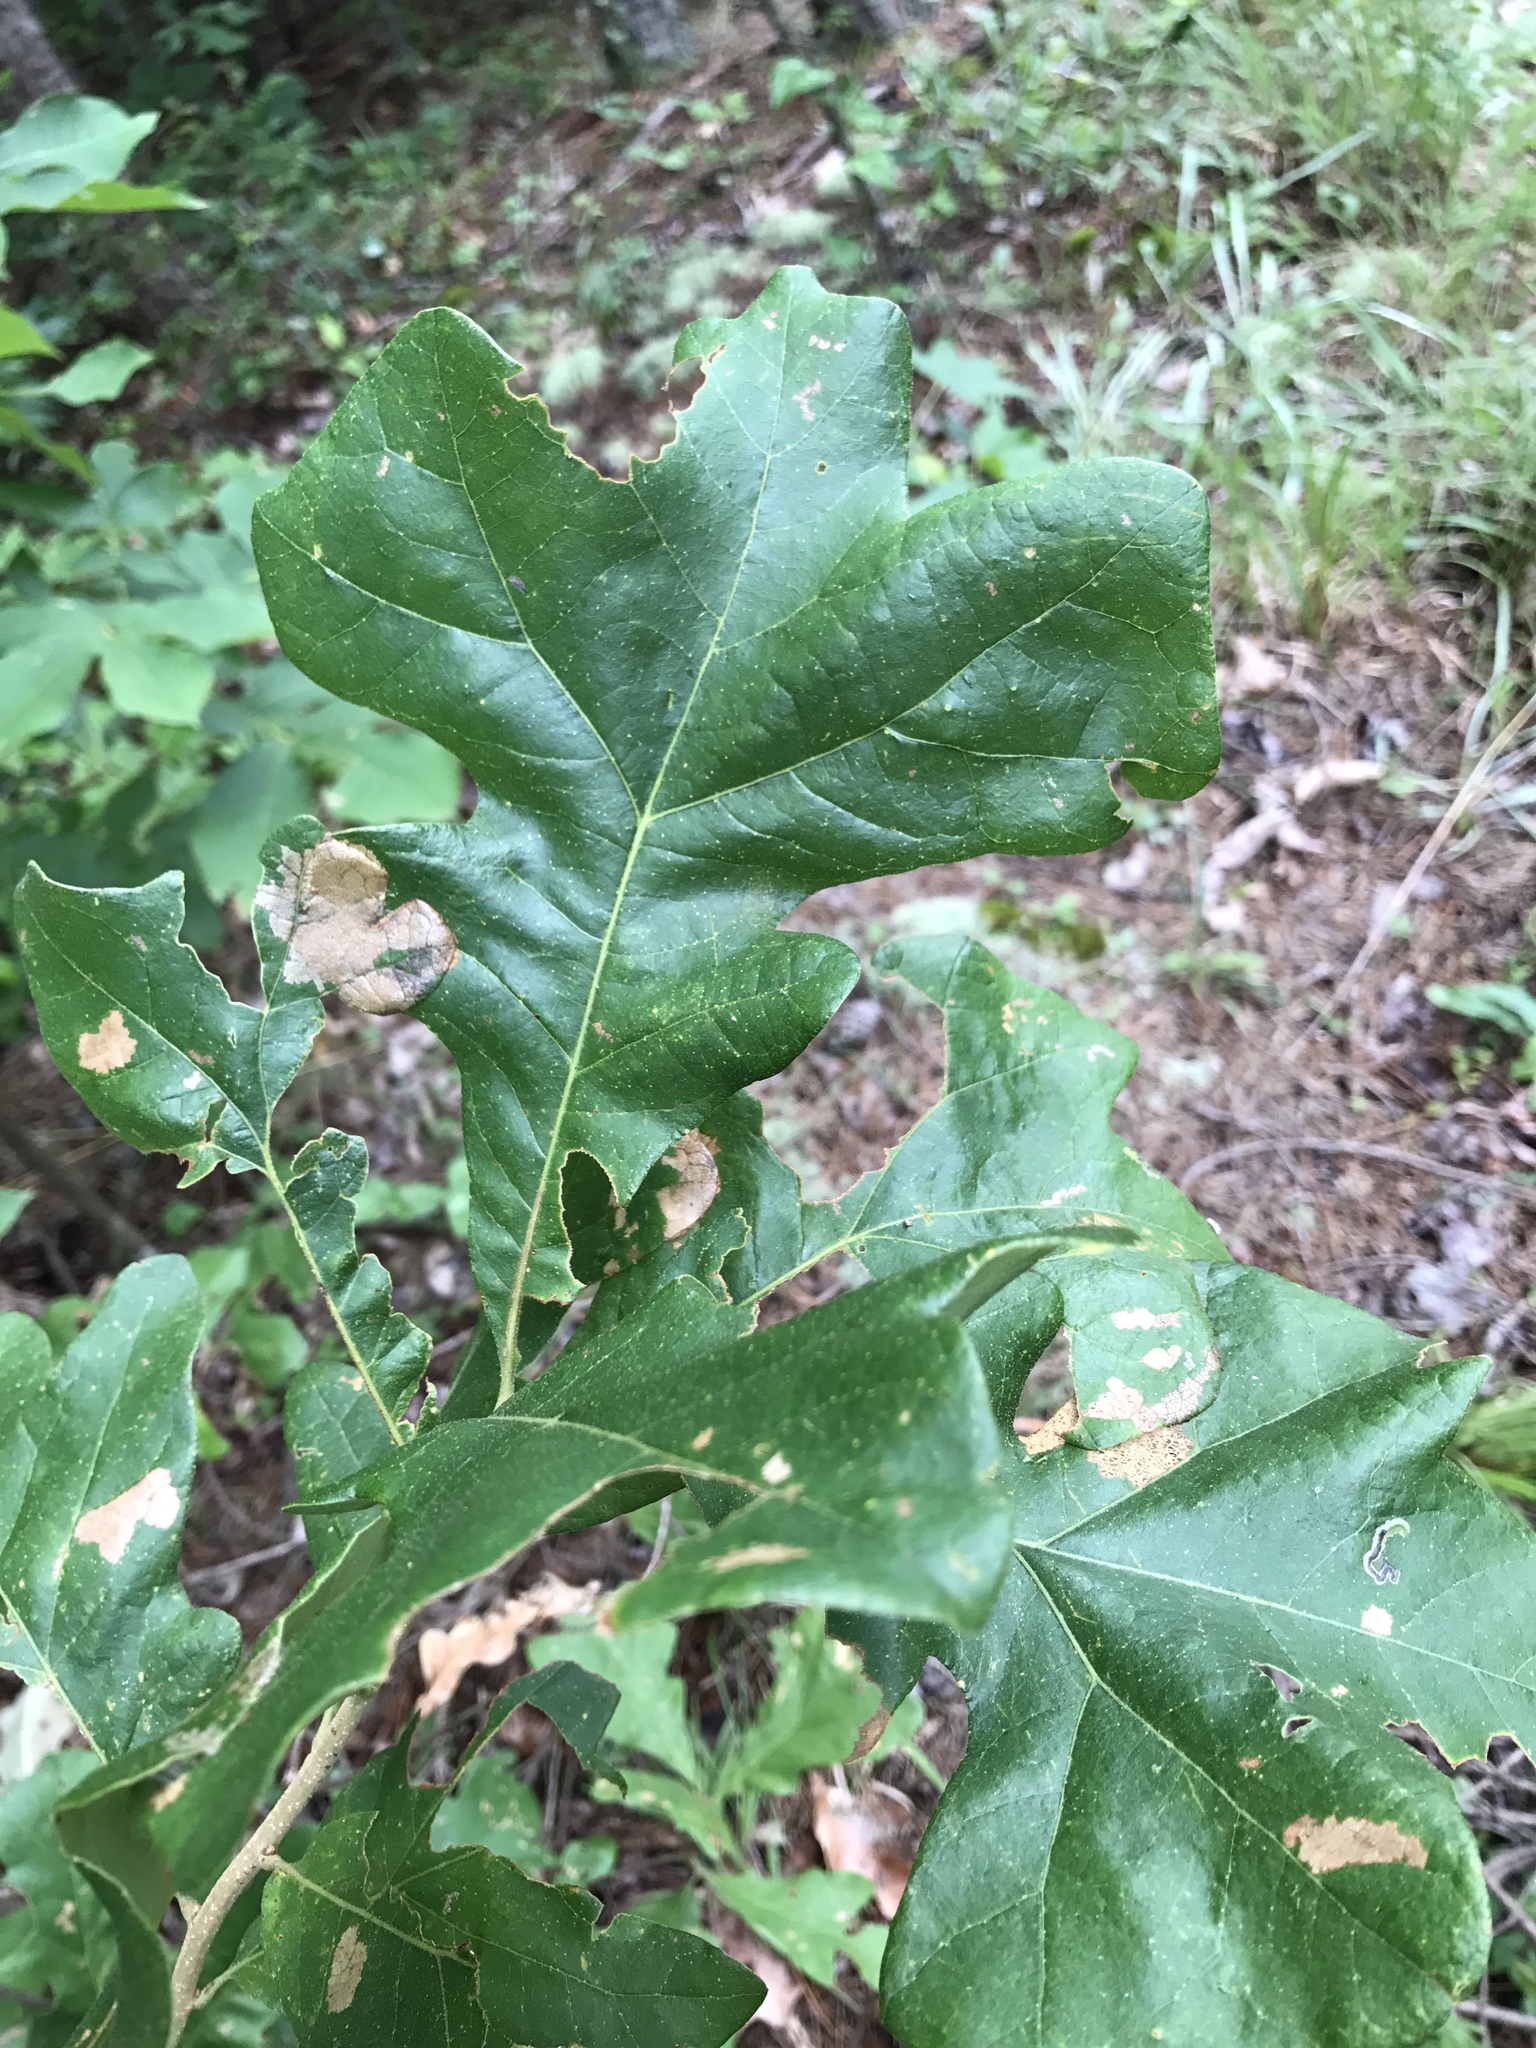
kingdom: Plantae
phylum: Tracheophyta
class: Magnoliopsida
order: Fagales
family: Fagaceae
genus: Quercus
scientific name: Quercus stellata
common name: Post oak
